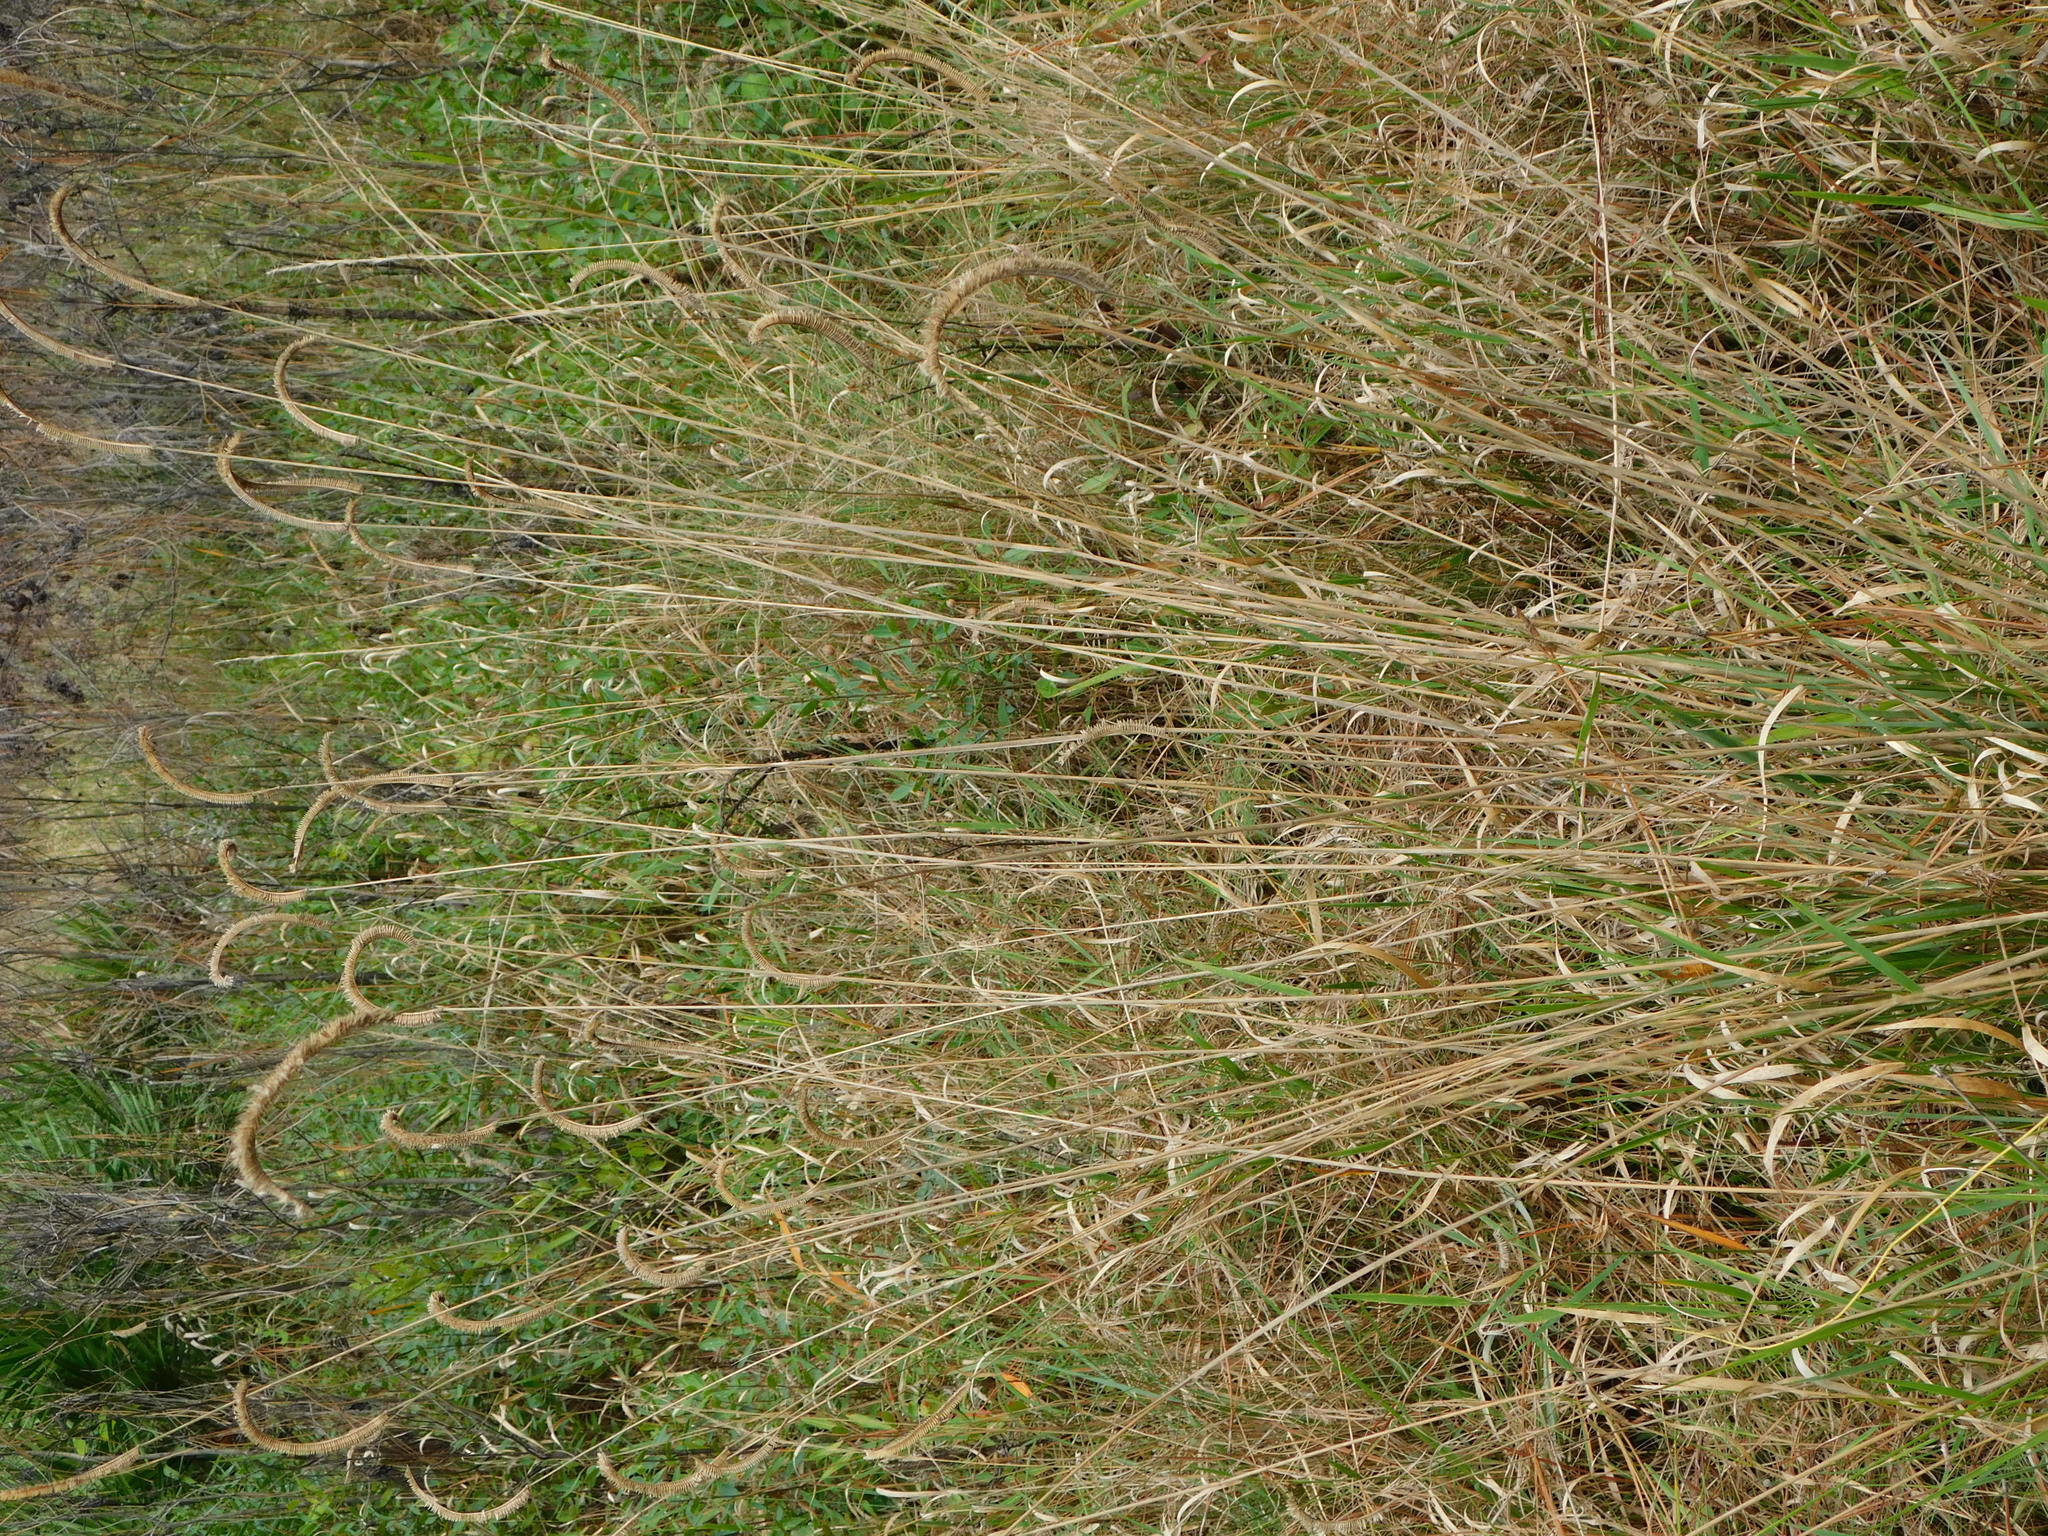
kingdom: Plantae
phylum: Tracheophyta
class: Liliopsida
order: Poales
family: Poaceae
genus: Ctenium
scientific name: Ctenium aromaticum
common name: Toothache grass
